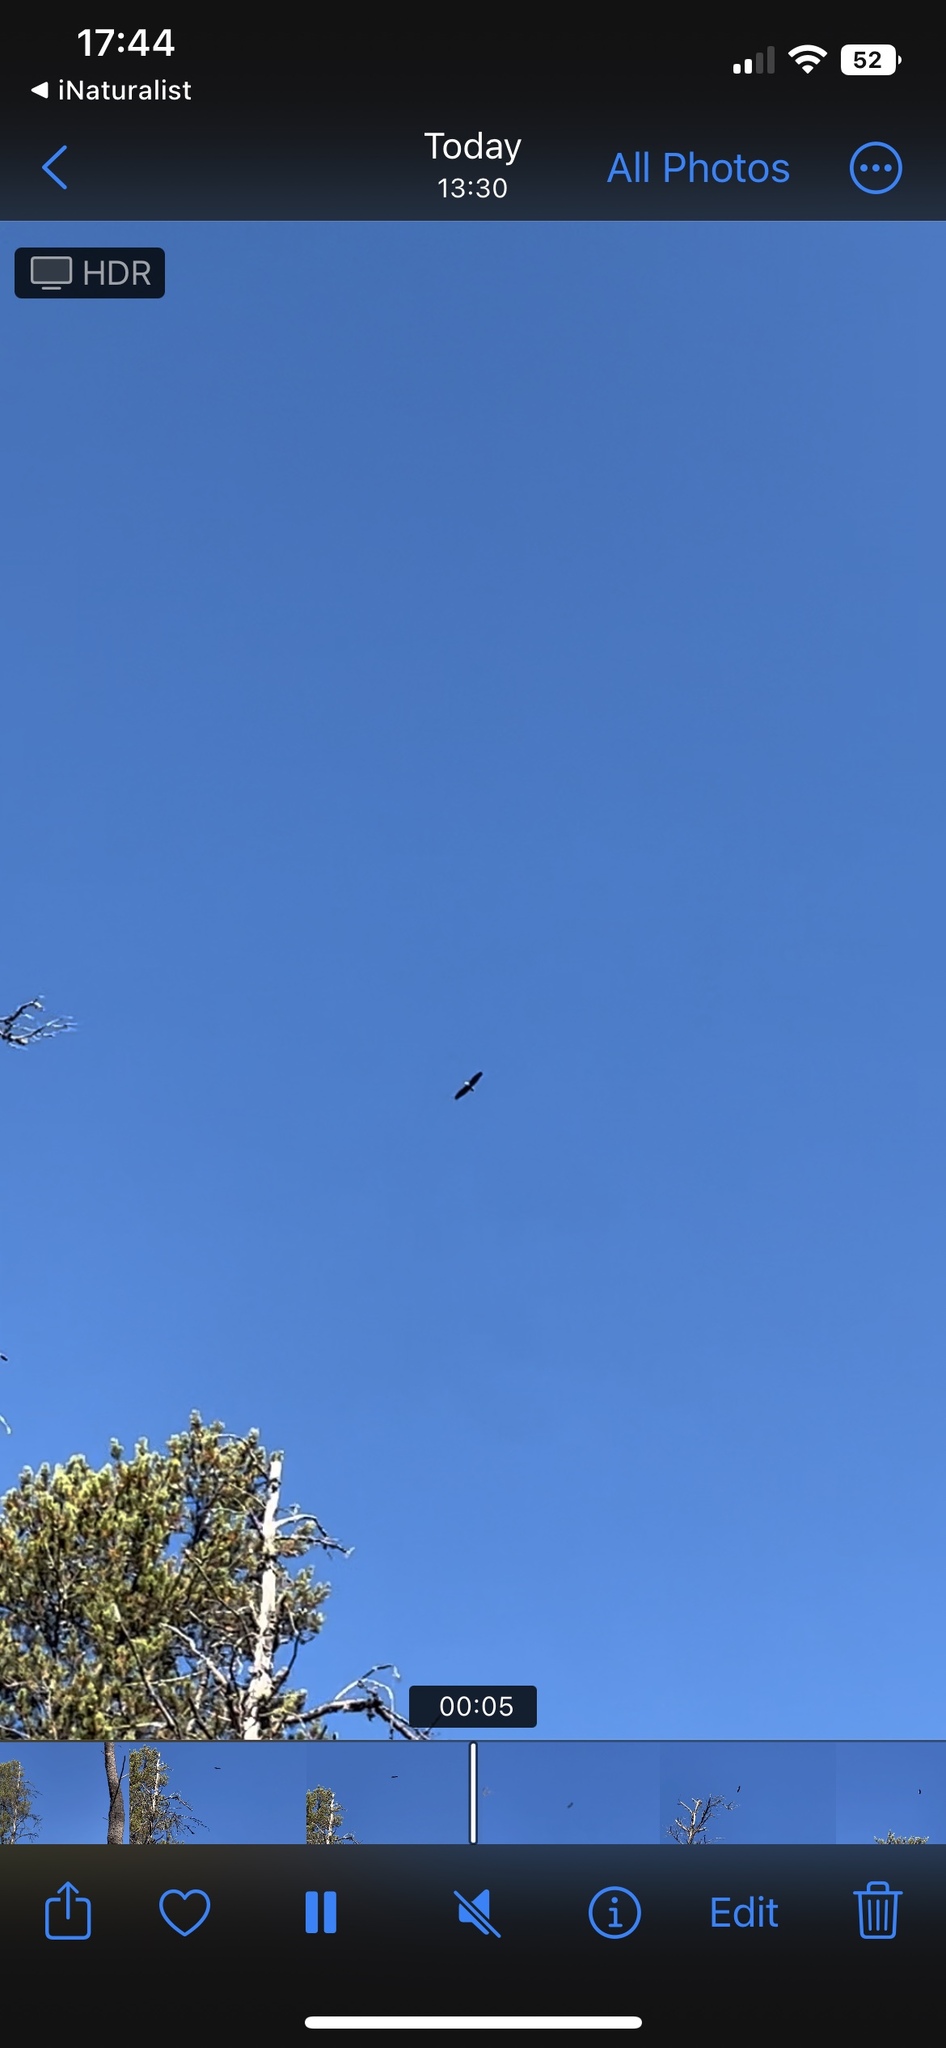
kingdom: Animalia
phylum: Chordata
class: Aves
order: Accipitriformes
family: Accipitridae
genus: Haliaeetus
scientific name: Haliaeetus leucocephalus
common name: Bald eagle
